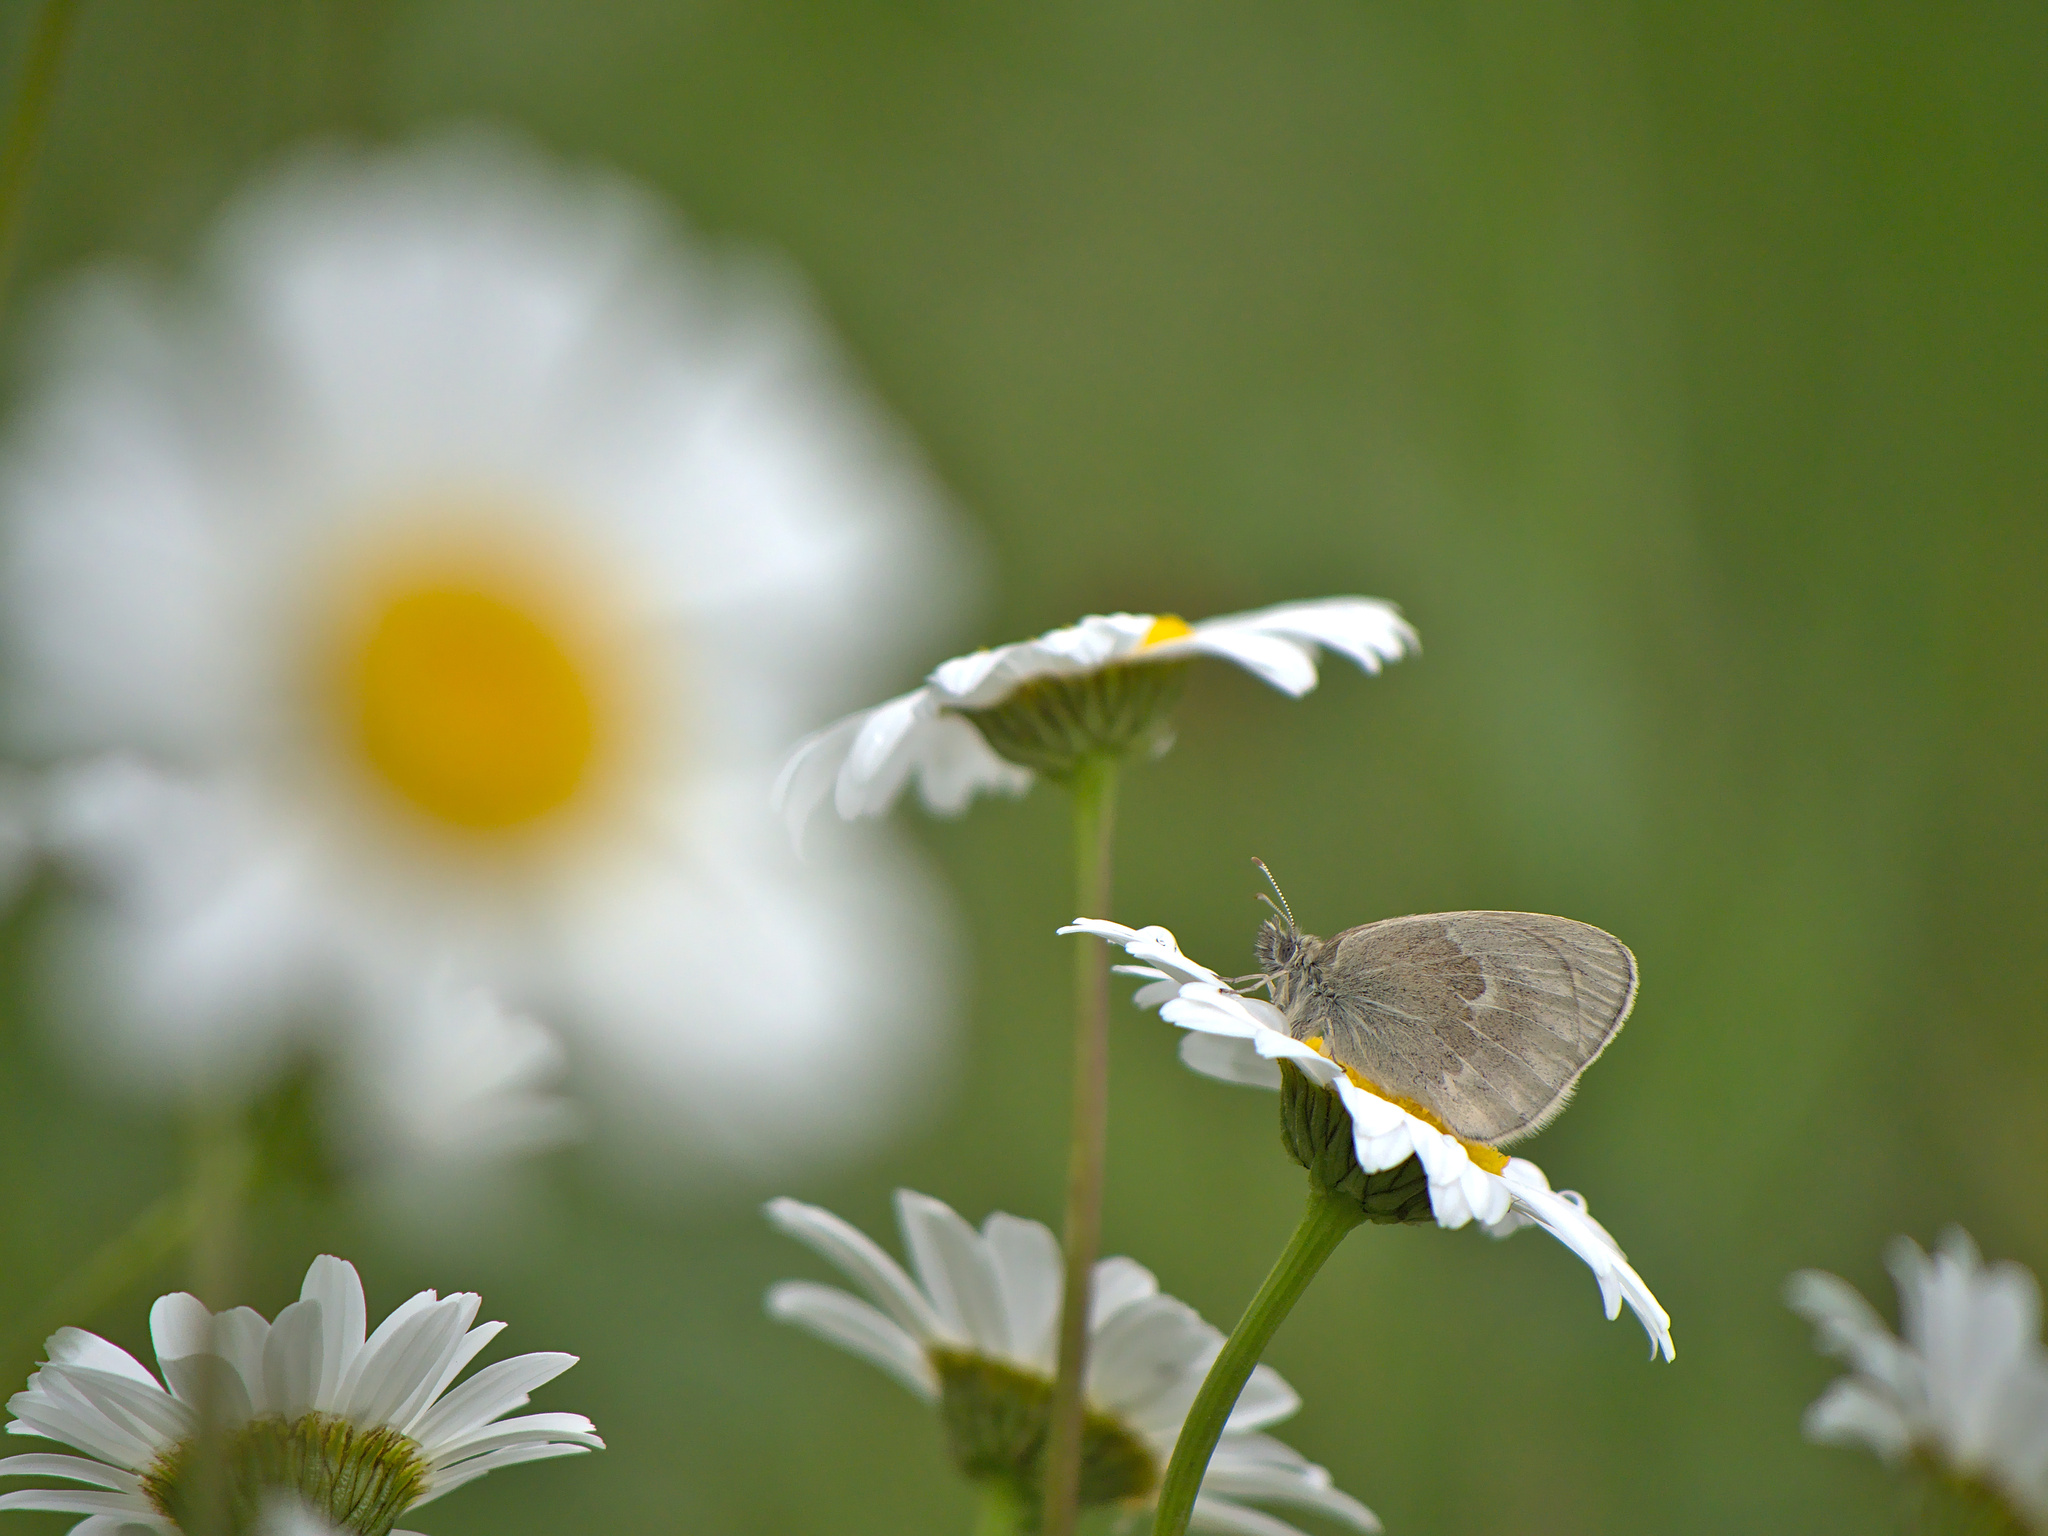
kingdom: Animalia
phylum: Arthropoda
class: Insecta
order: Lepidoptera
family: Nymphalidae
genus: Coenonympha
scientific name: Coenonympha california
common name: Common ringlet
